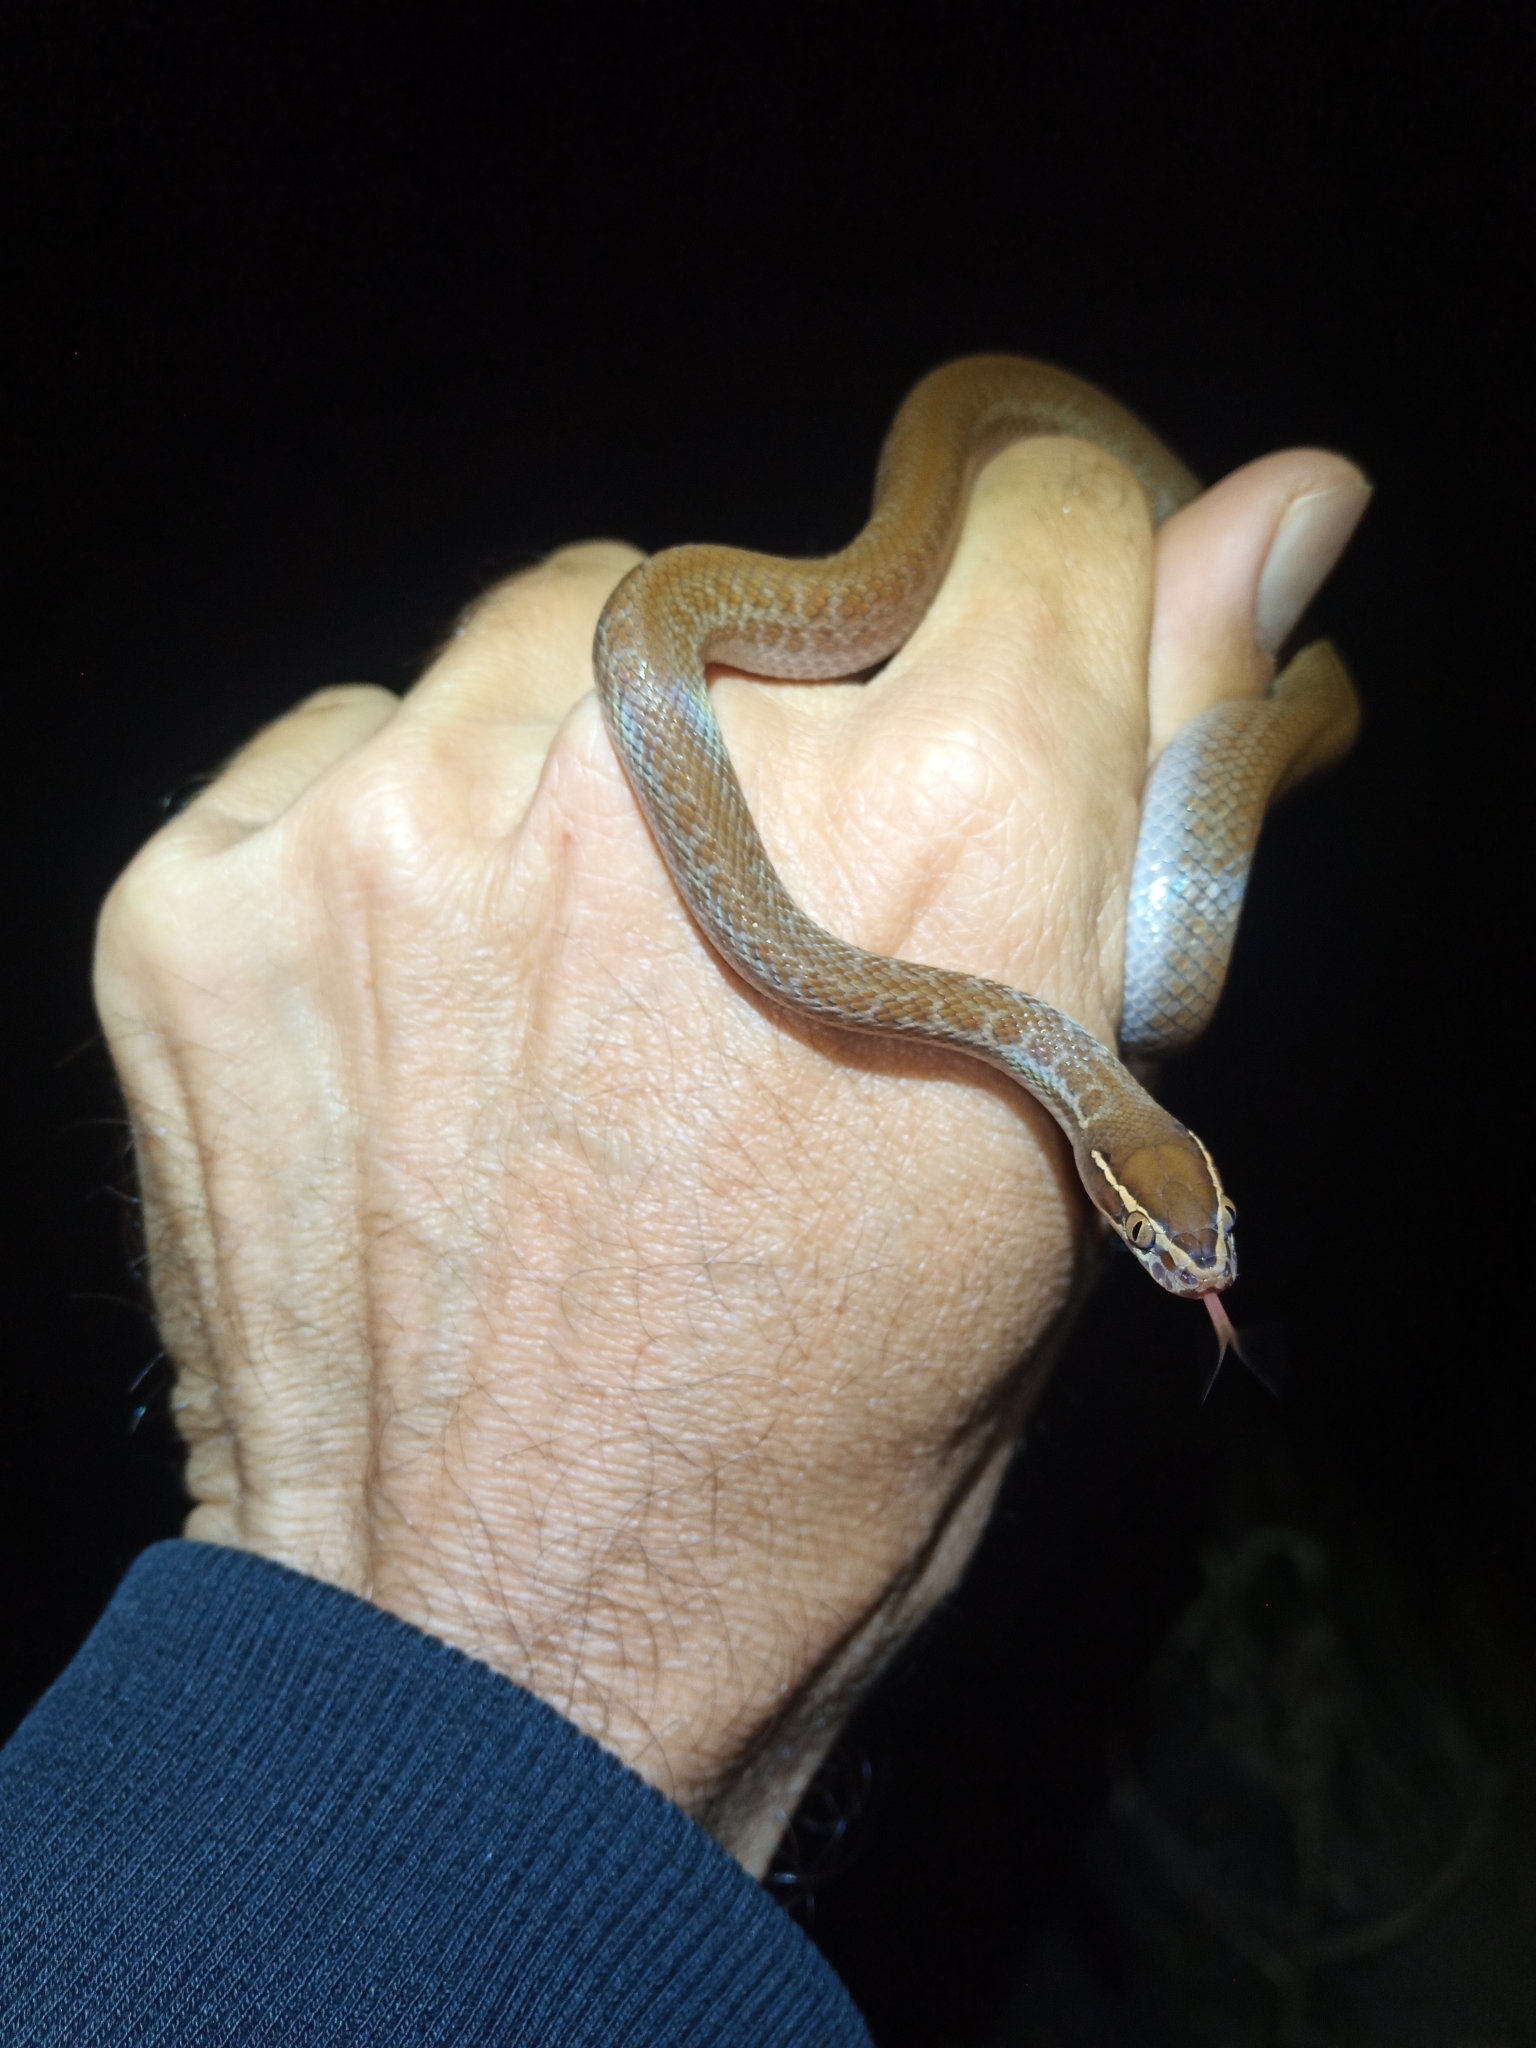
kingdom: Animalia
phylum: Chordata
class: Squamata
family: Lamprophiidae
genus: Boaedon
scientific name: Boaedon capensis
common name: Brown house snake
